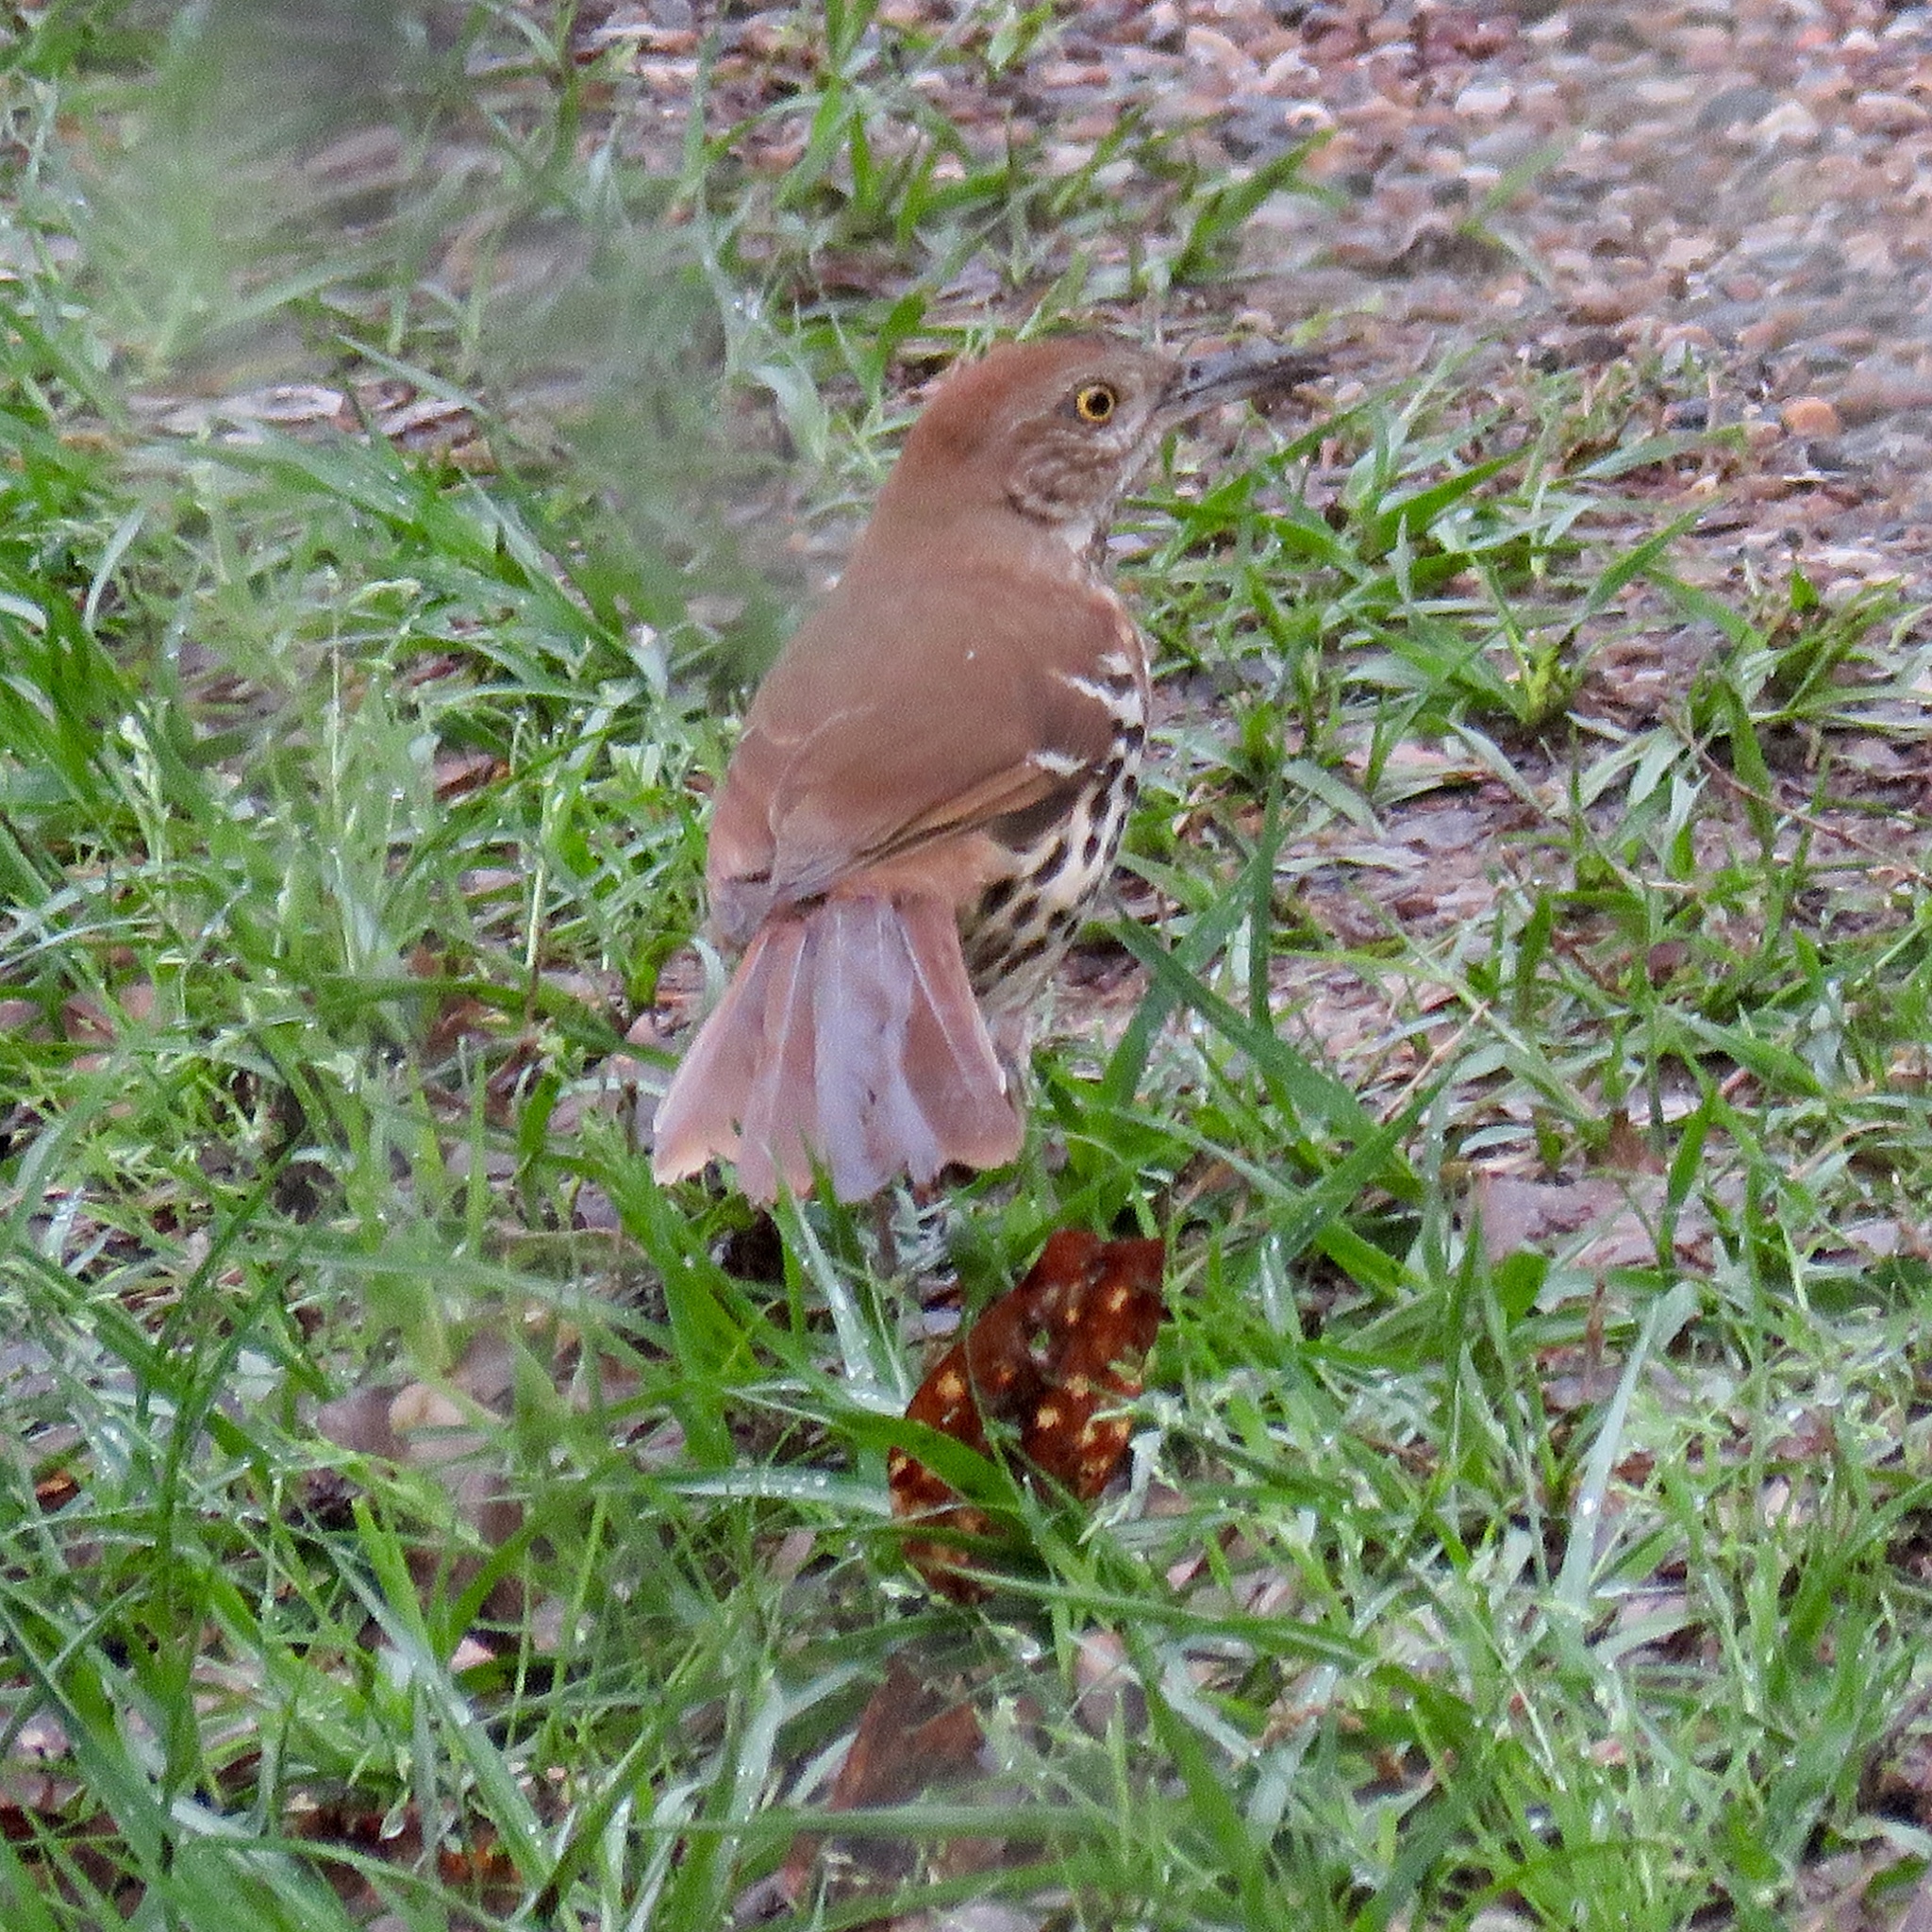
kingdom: Animalia
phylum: Chordata
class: Aves
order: Passeriformes
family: Mimidae
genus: Toxostoma
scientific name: Toxostoma rufum
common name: Brown thrasher
